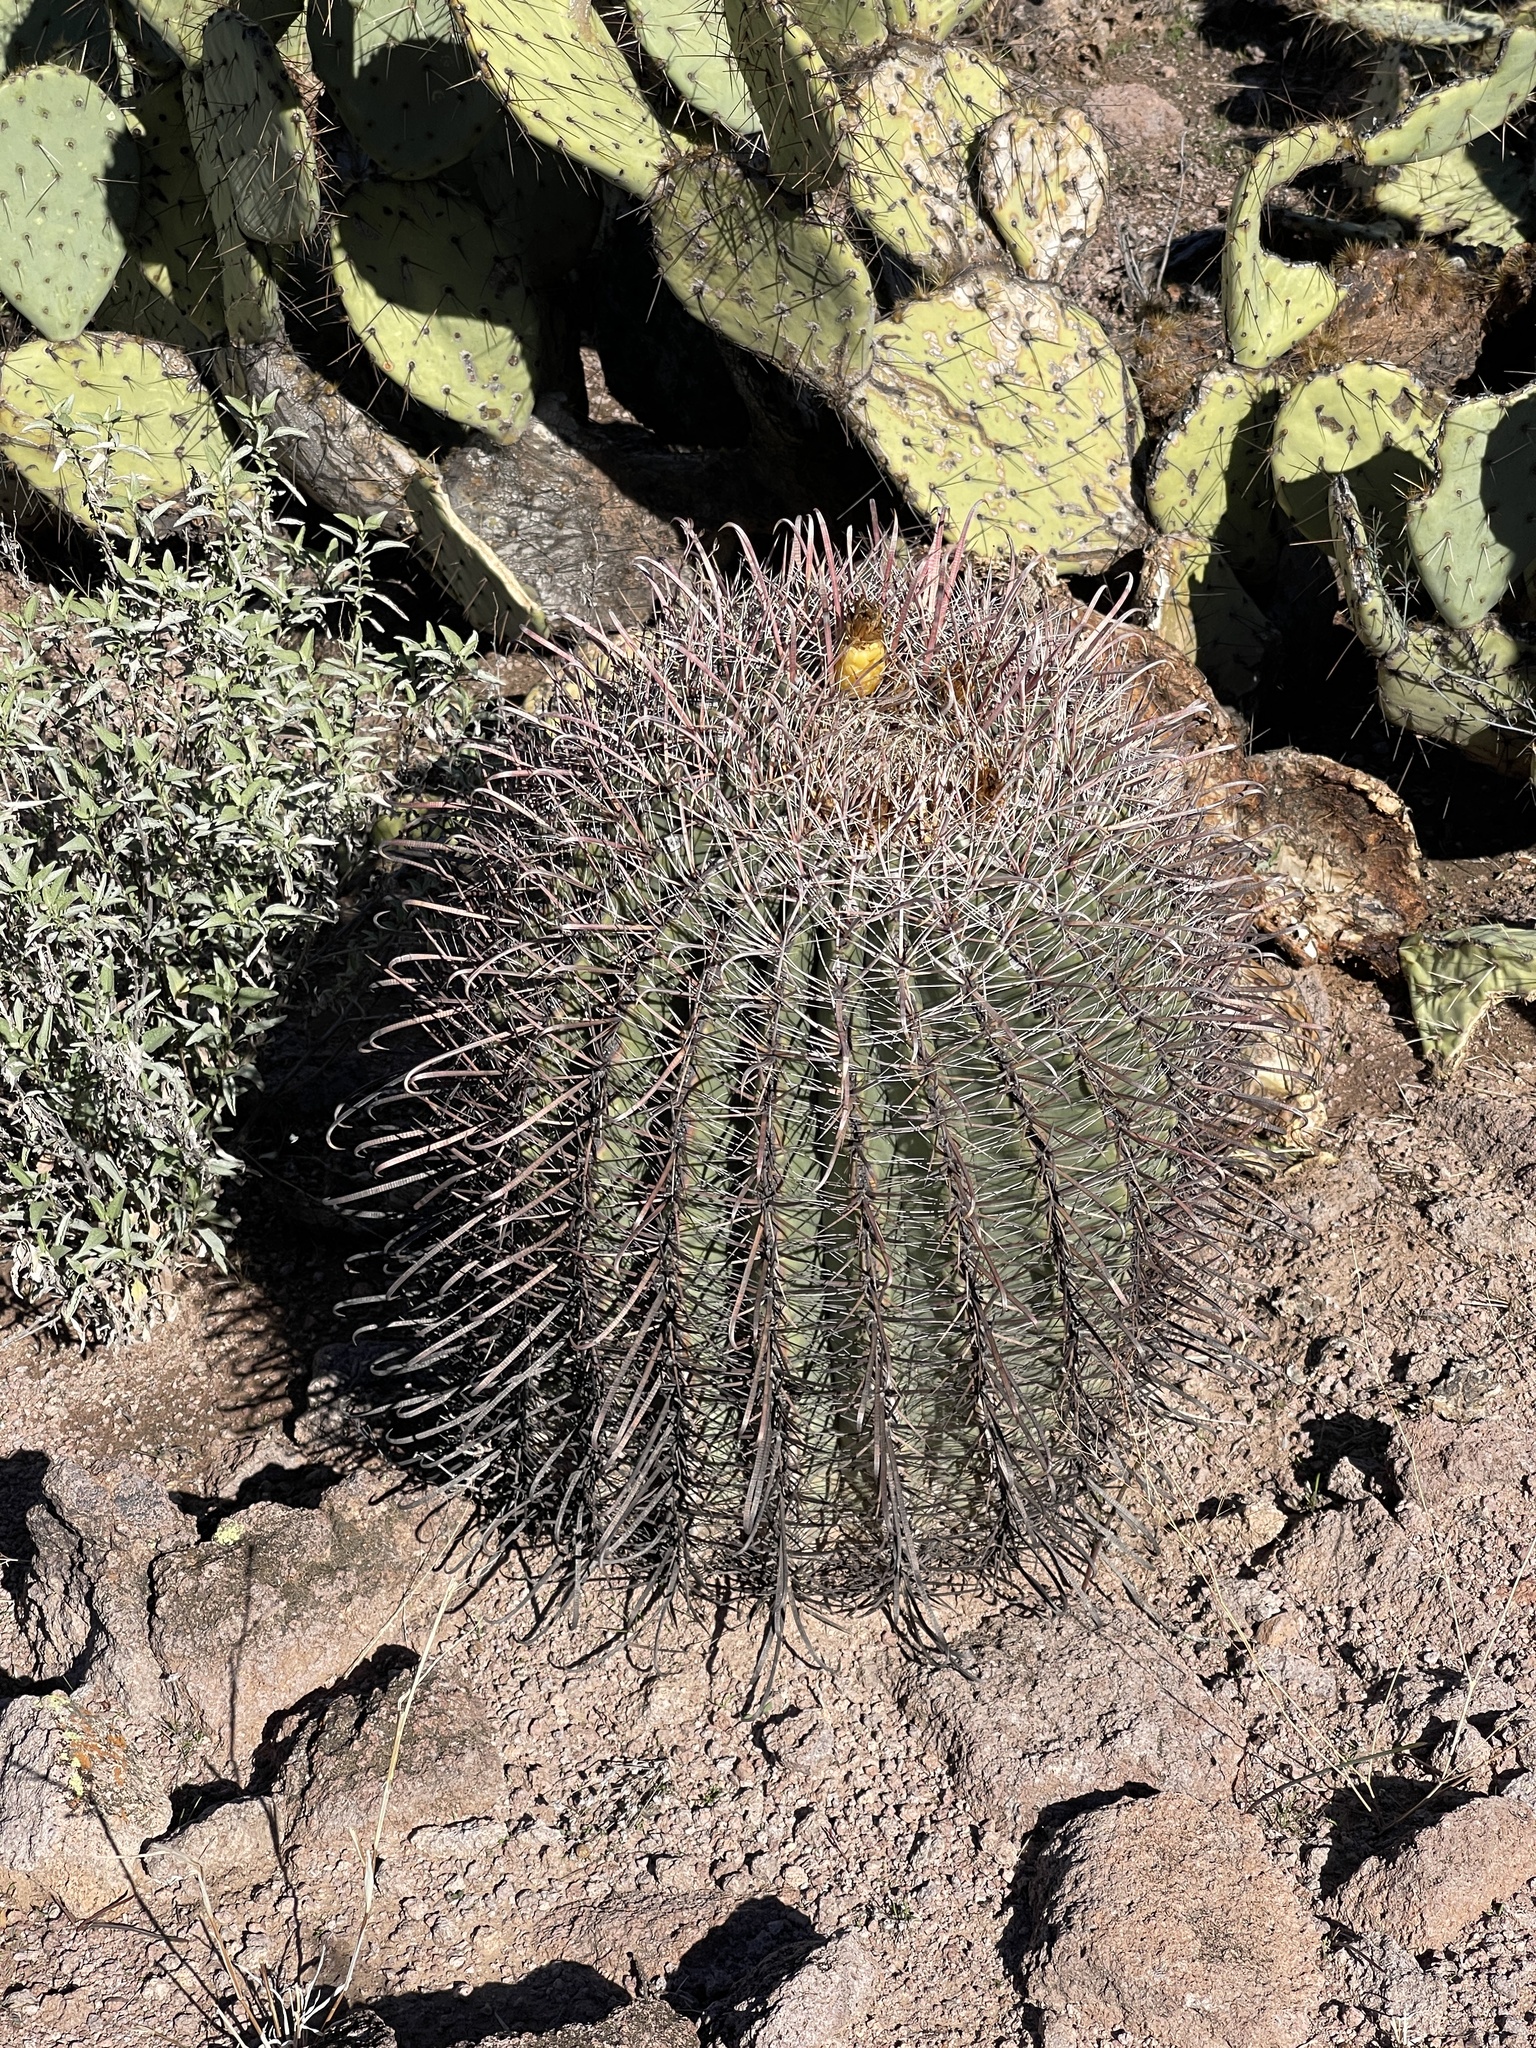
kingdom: Plantae
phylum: Tracheophyta
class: Magnoliopsida
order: Caryophyllales
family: Cactaceae
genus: Ferocactus
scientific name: Ferocactus wislizeni
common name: Candy barrel cactus
